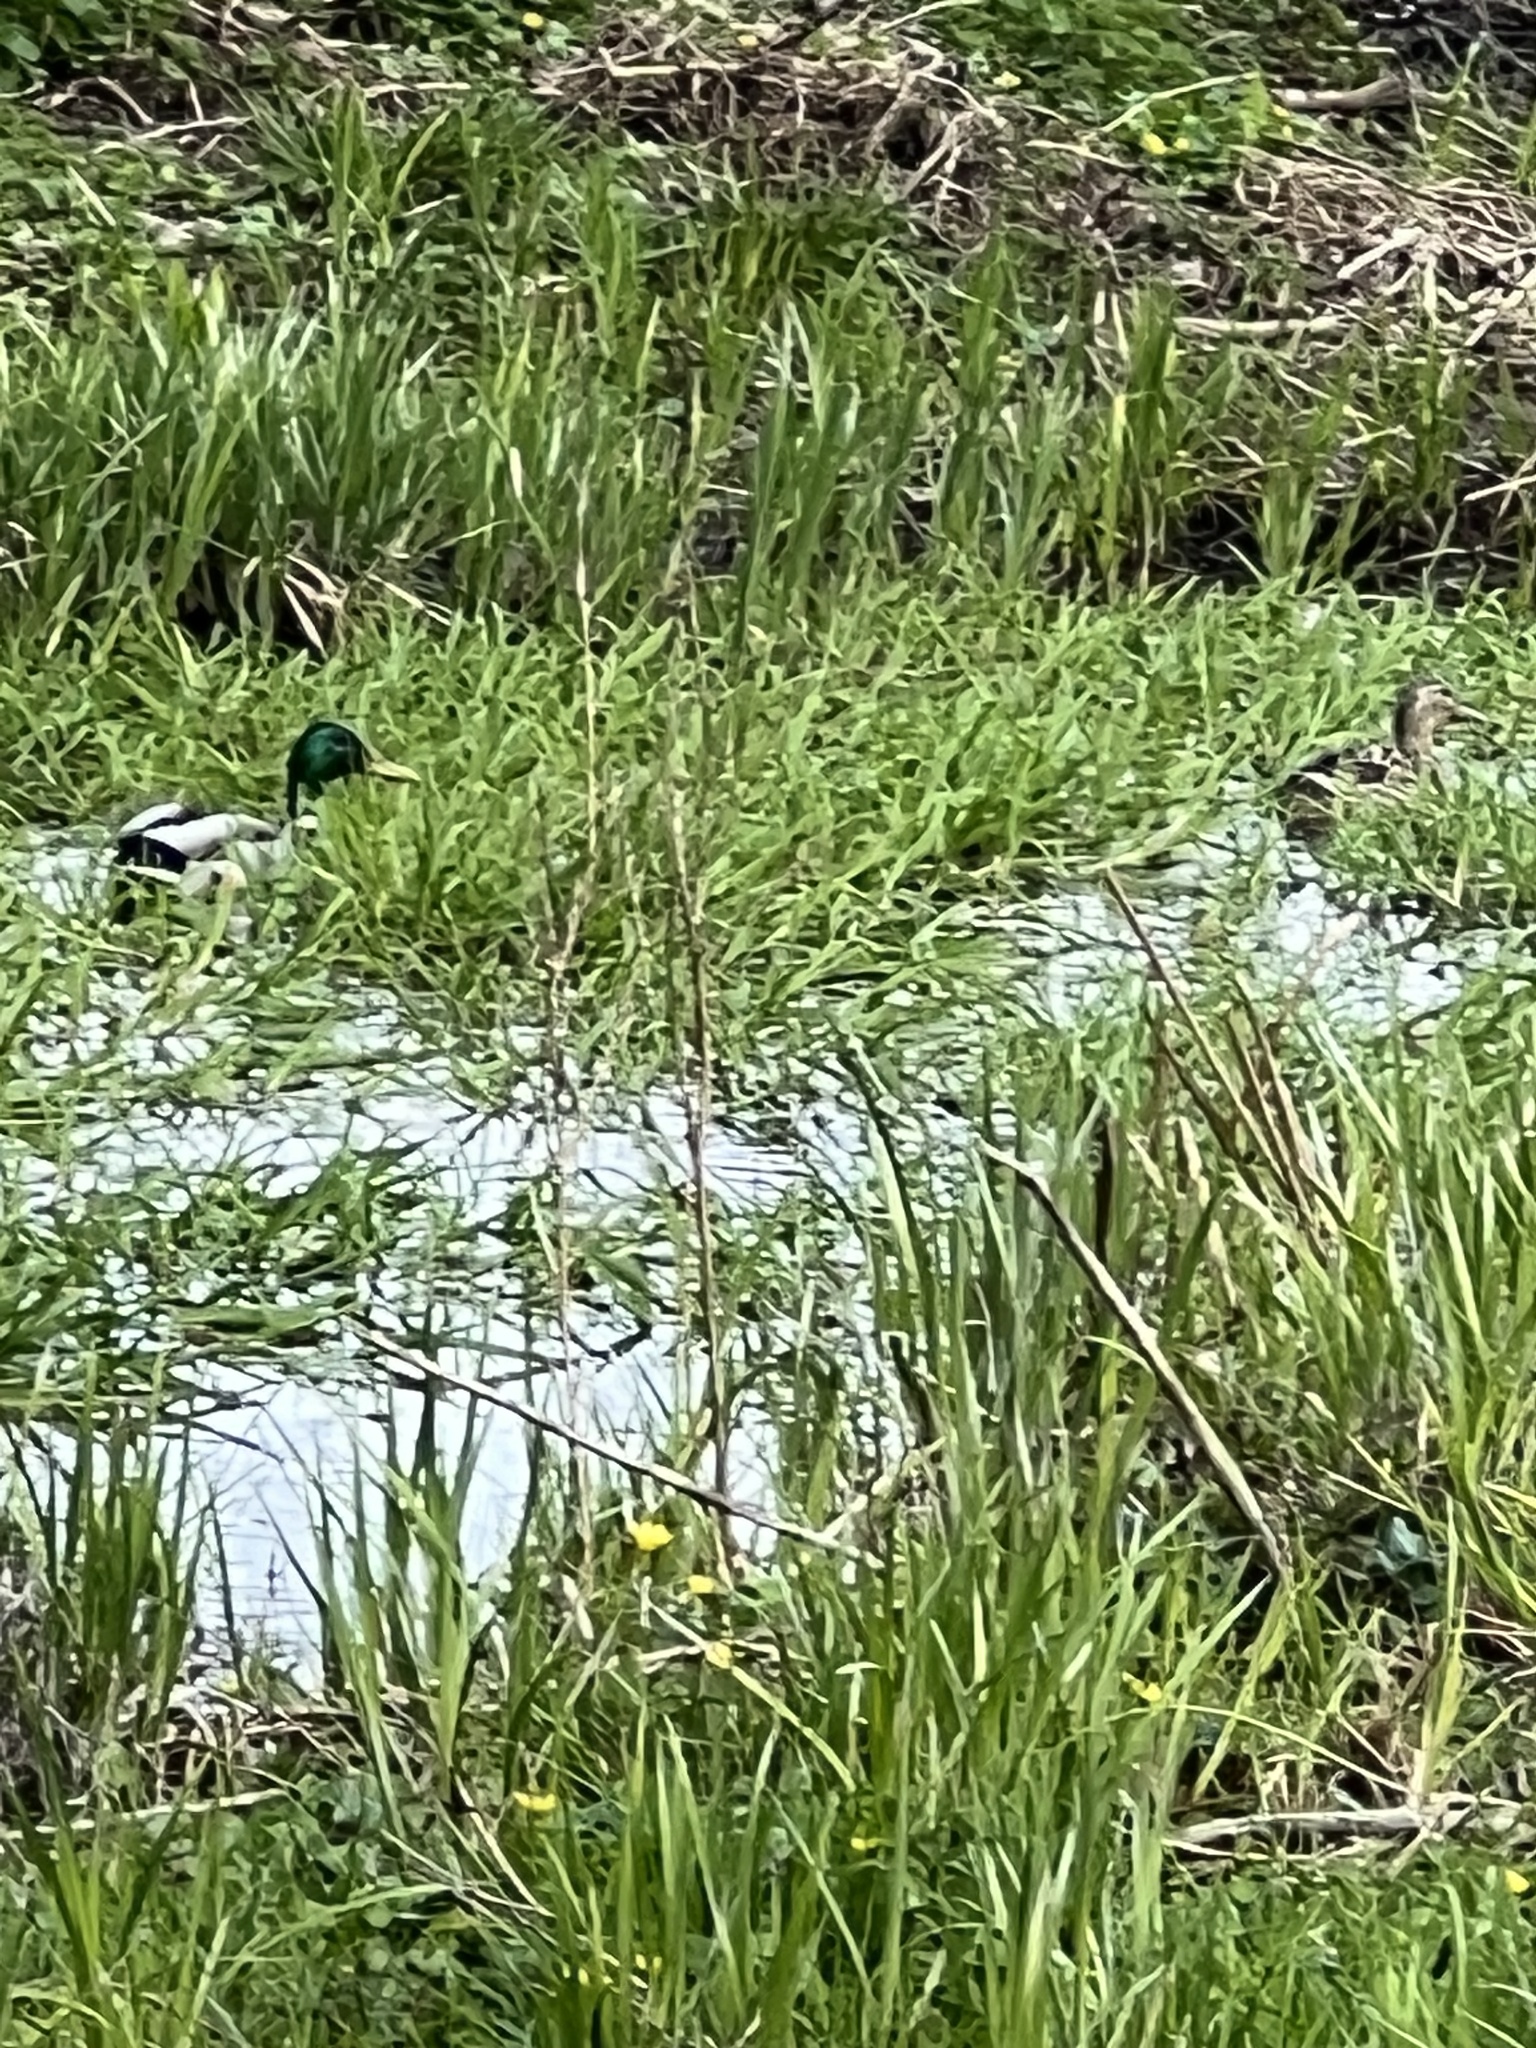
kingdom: Animalia
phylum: Chordata
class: Aves
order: Anseriformes
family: Anatidae
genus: Anas
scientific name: Anas platyrhynchos
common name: Mallard
